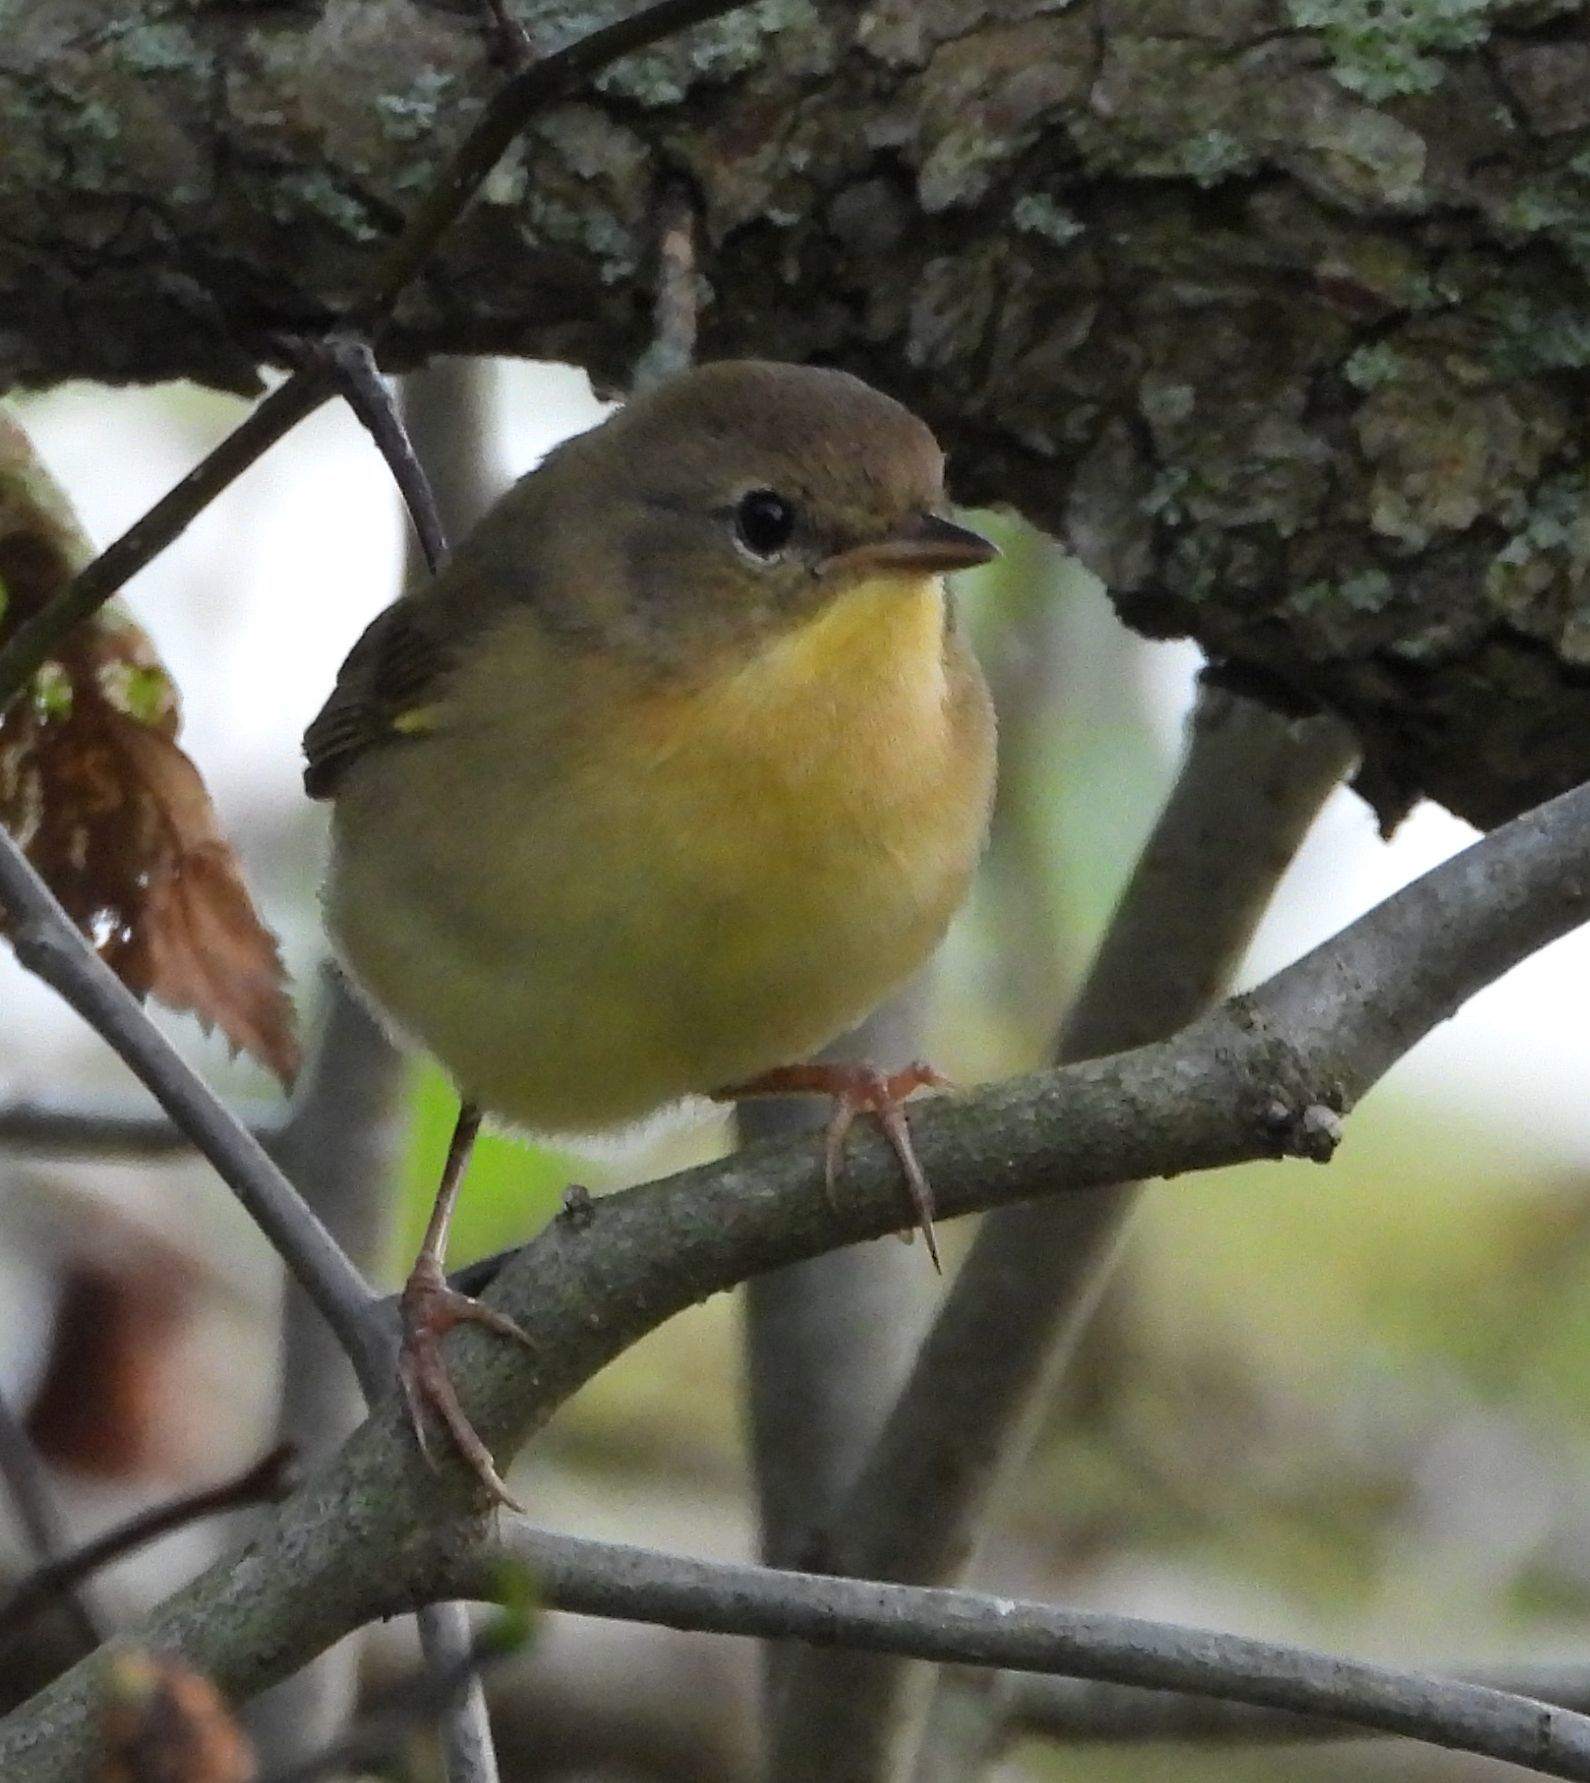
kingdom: Animalia
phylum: Chordata
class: Aves
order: Passeriformes
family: Parulidae
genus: Geothlypis
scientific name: Geothlypis trichas
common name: Common yellowthroat
